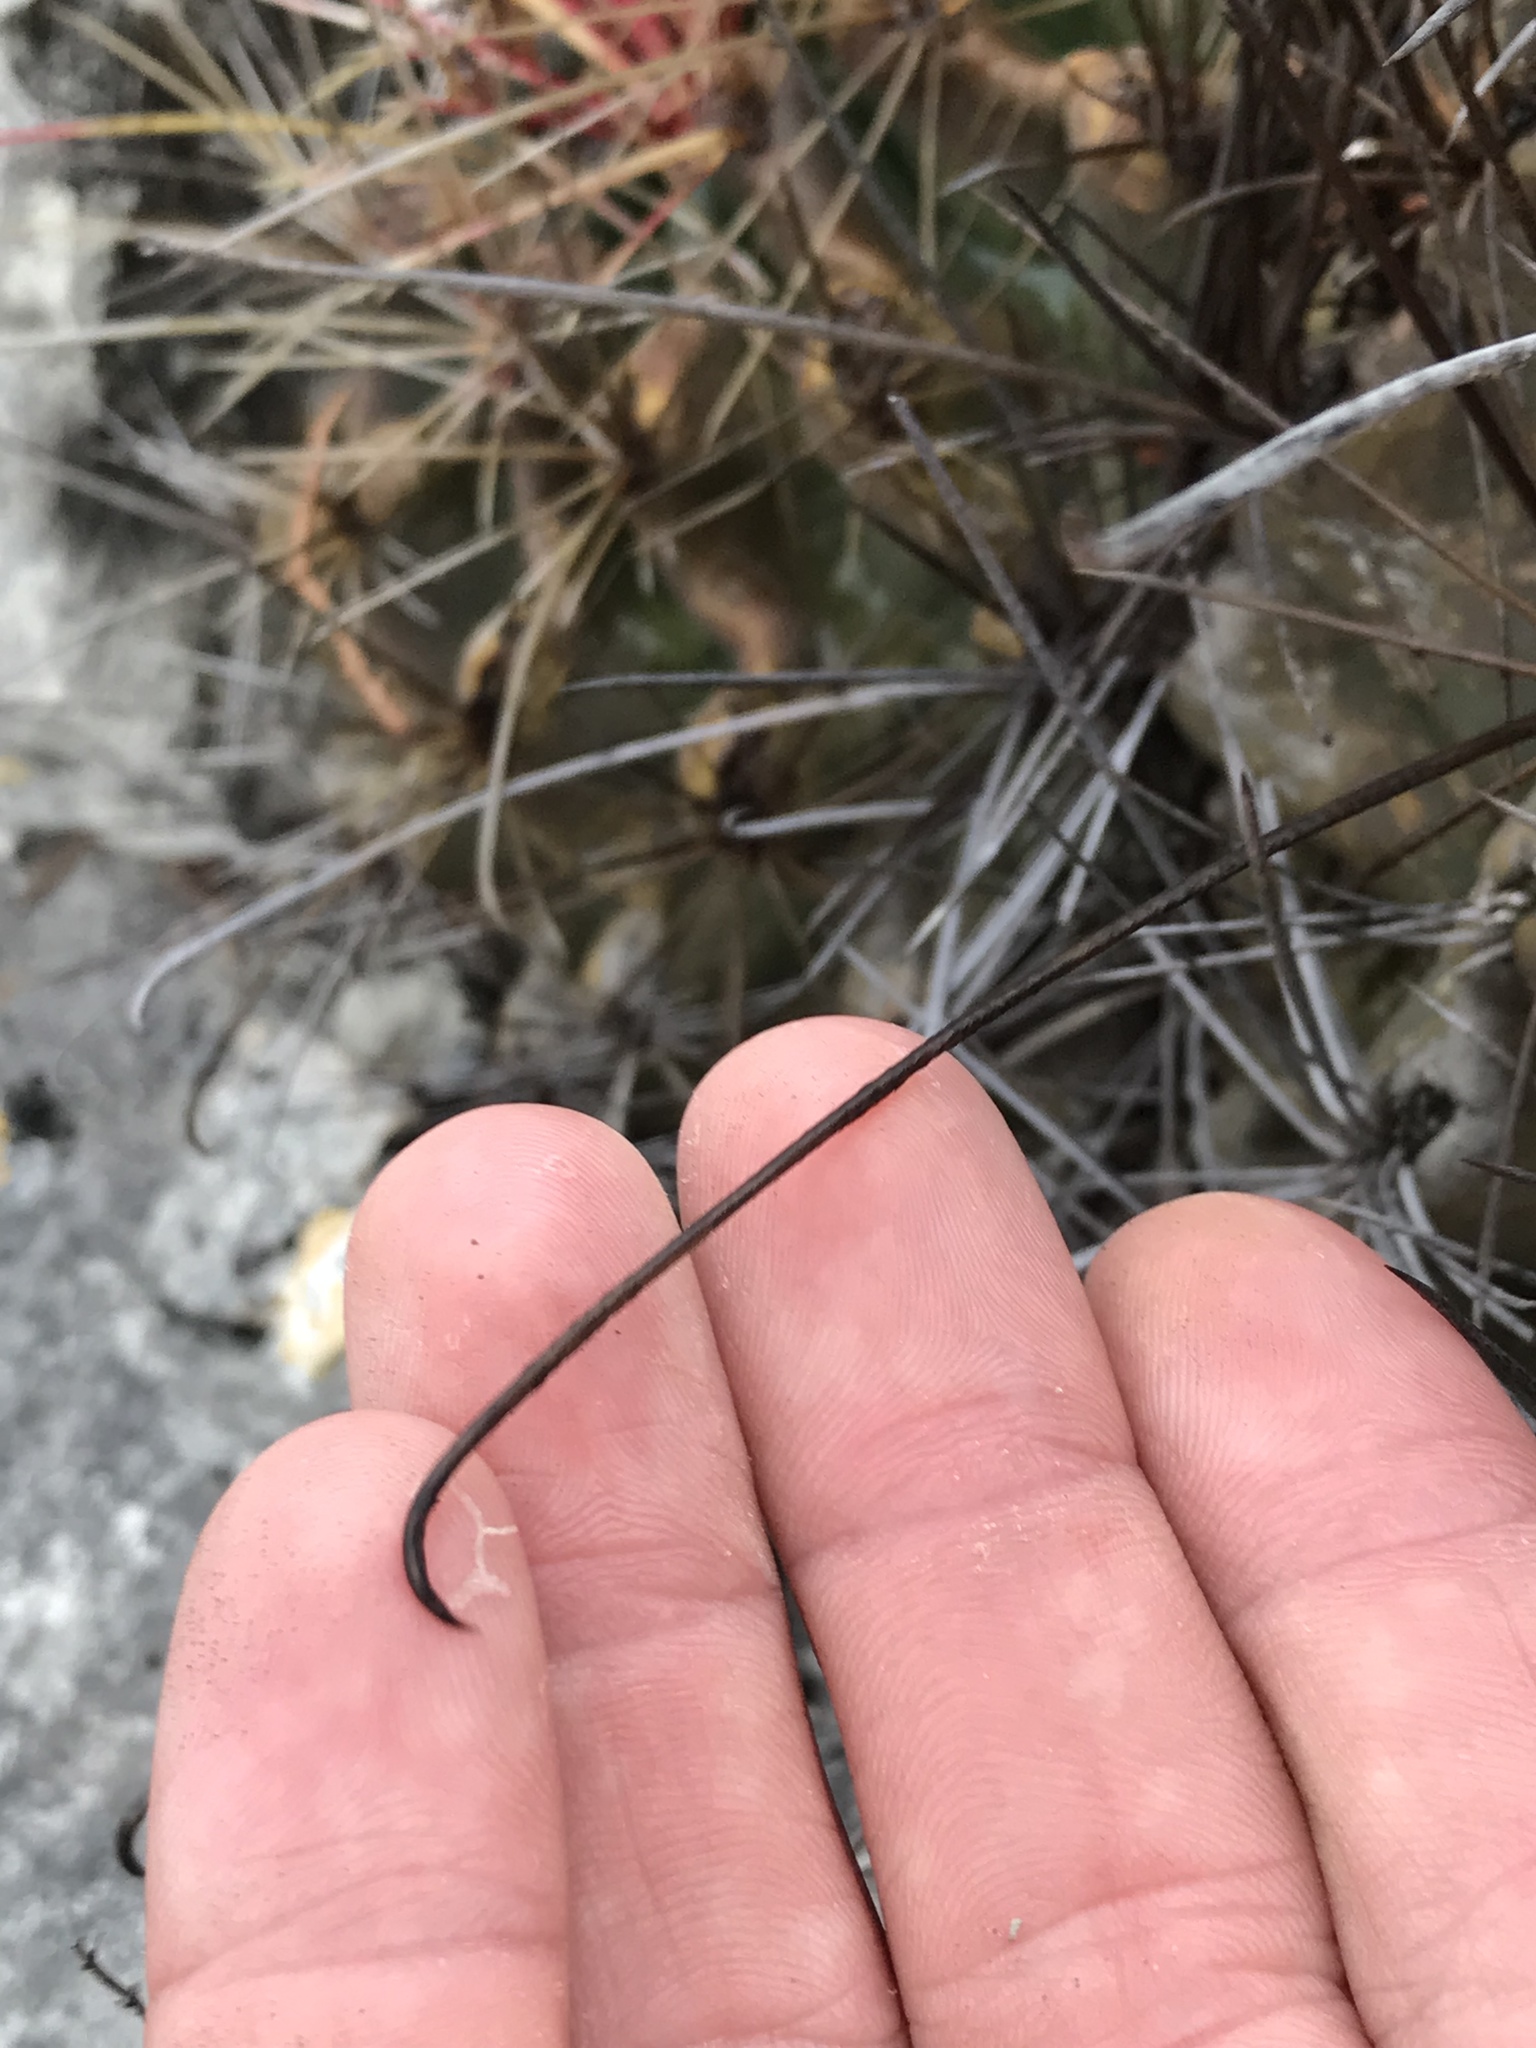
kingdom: Plantae
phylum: Tracheophyta
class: Magnoliopsida
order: Caryophyllales
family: Cactaceae
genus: Bisnaga
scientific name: Bisnaga hamatacantha
